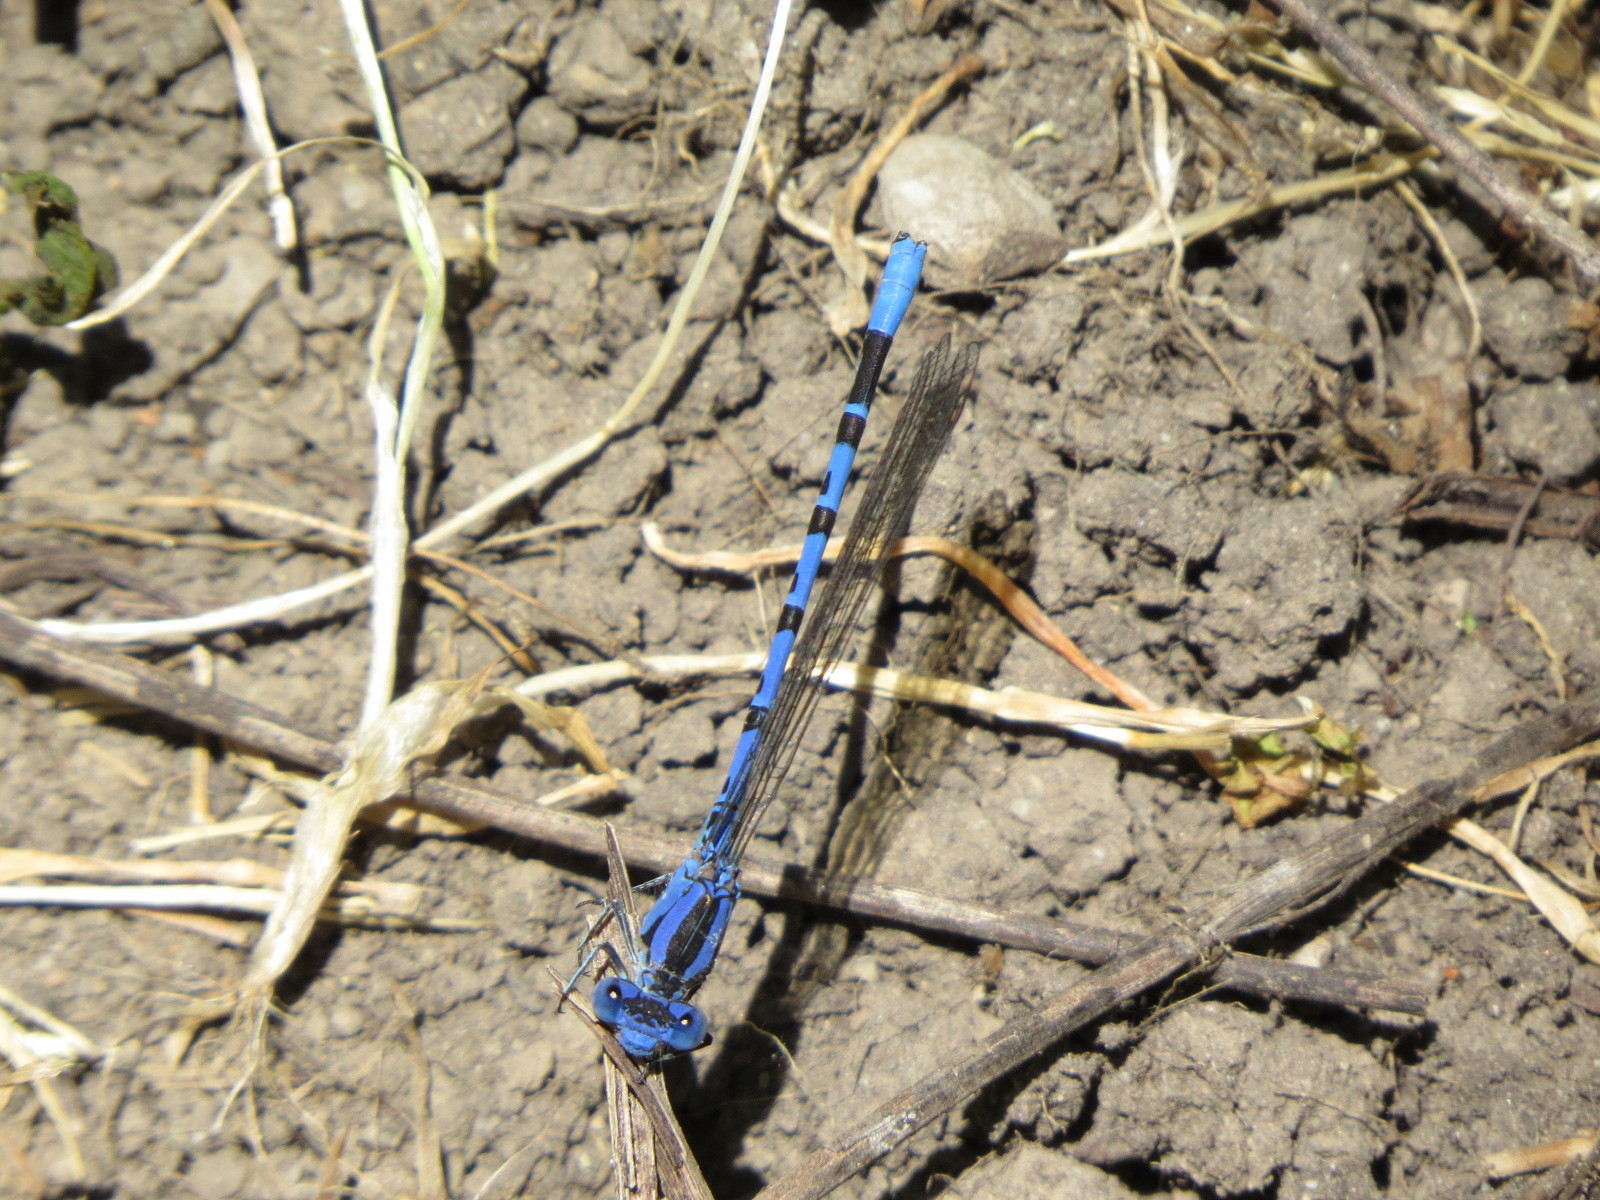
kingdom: Animalia
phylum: Arthropoda
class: Insecta
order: Odonata
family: Coenagrionidae
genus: Argia
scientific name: Argia vivida
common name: Vivid dancer
